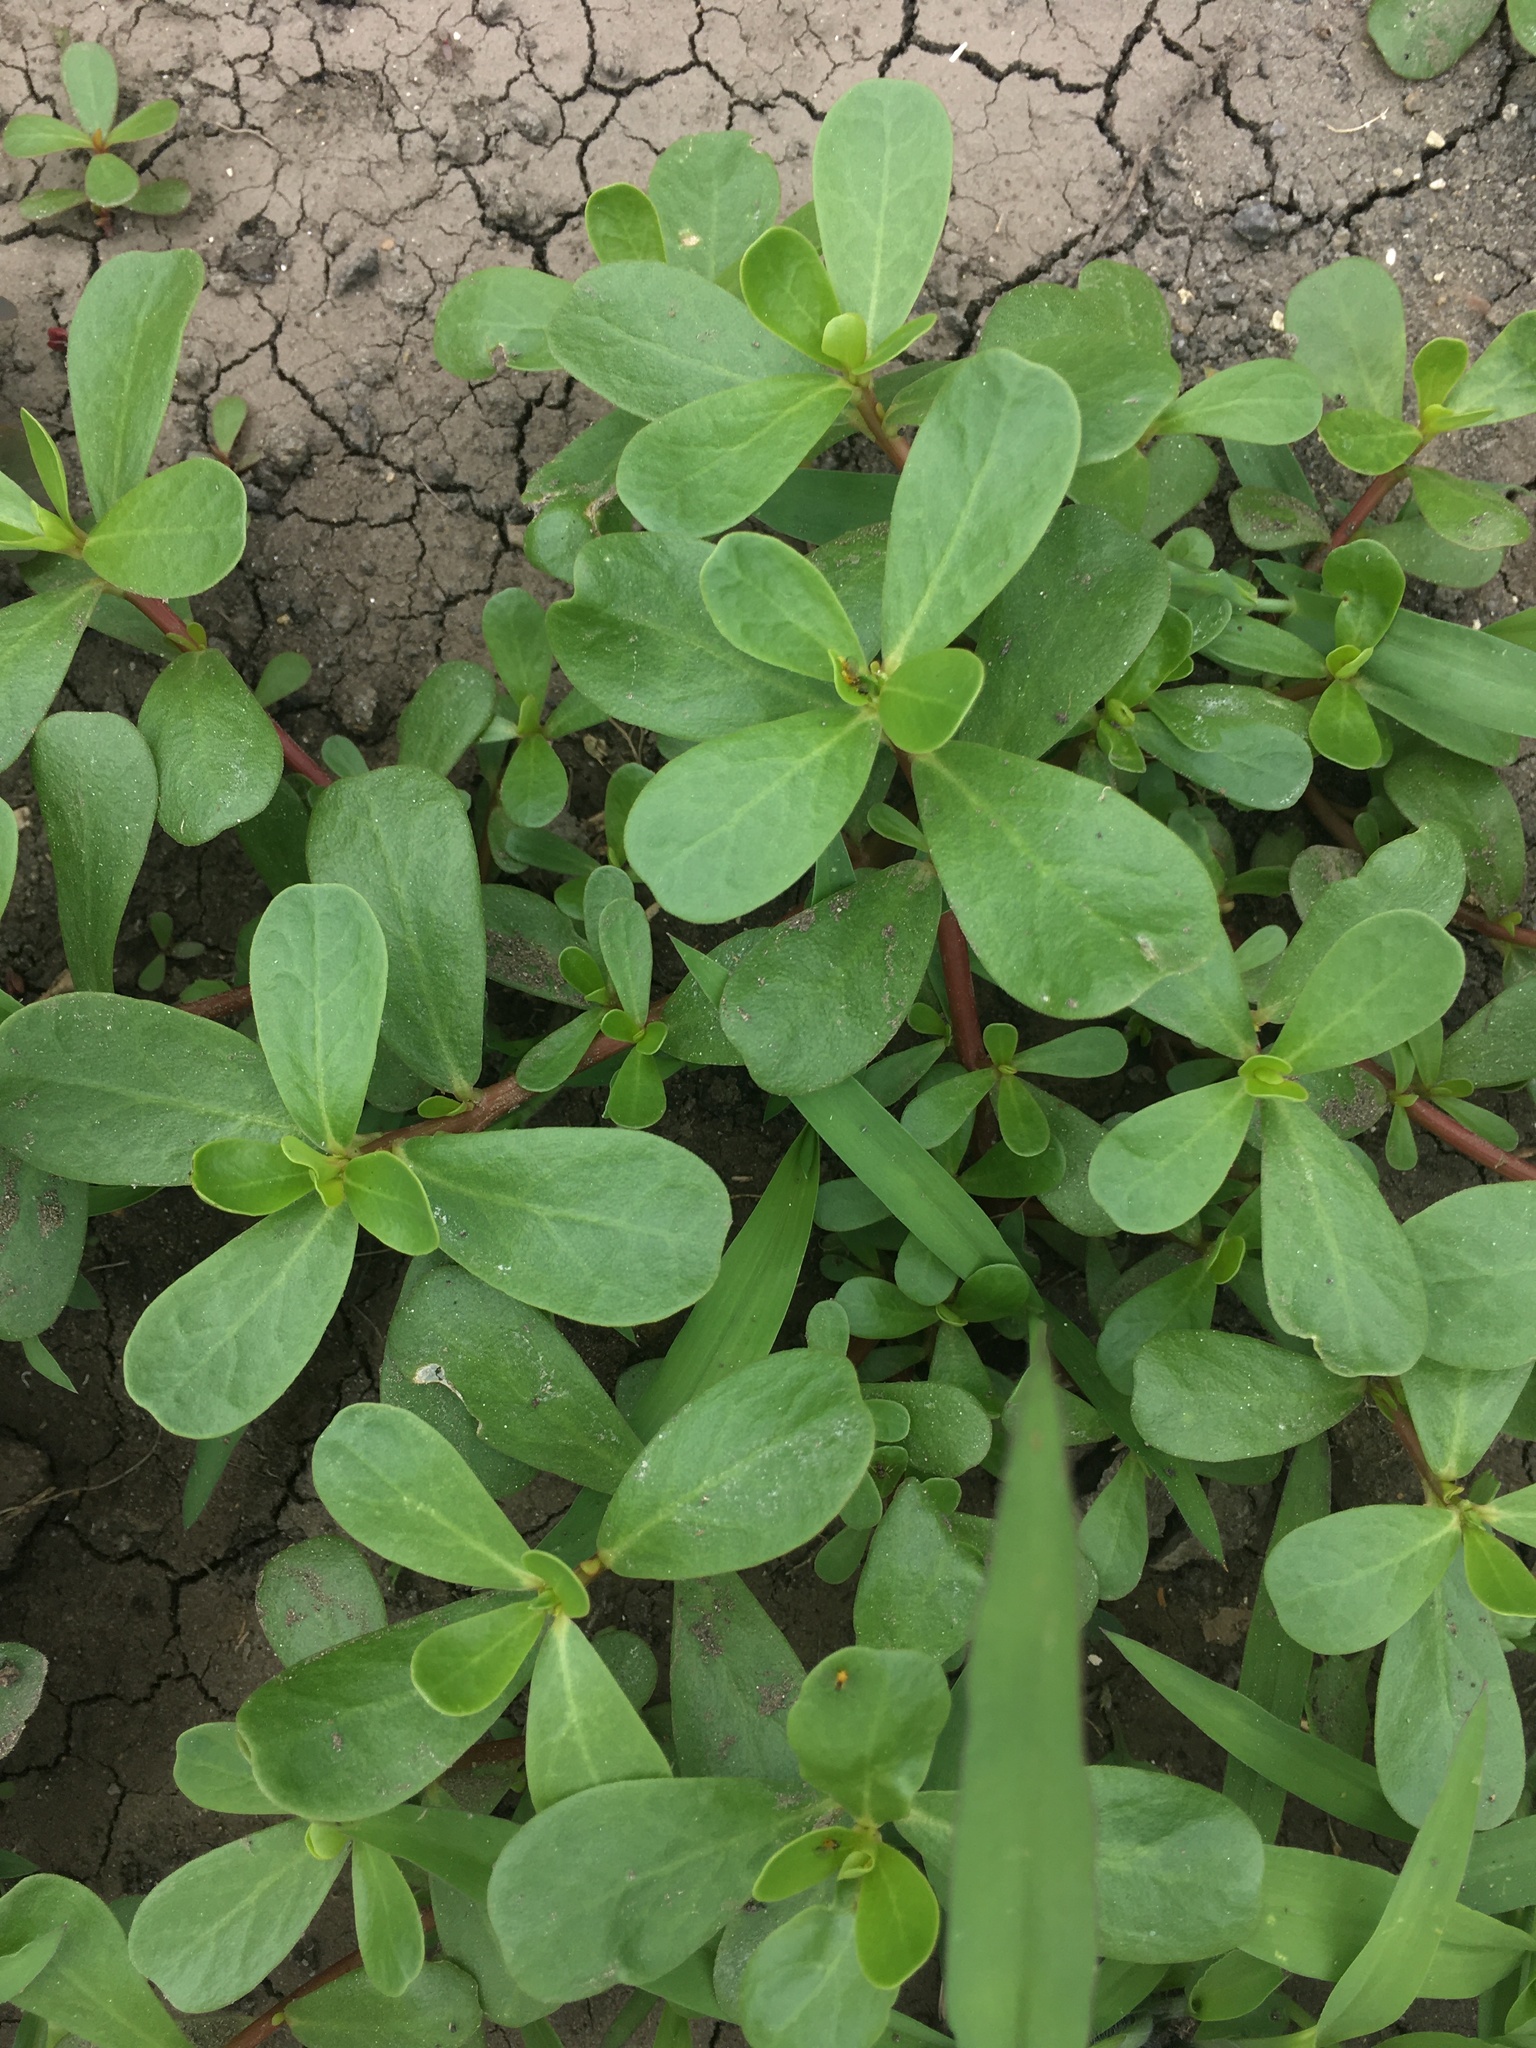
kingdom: Plantae
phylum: Tracheophyta
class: Magnoliopsida
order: Caryophyllales
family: Portulacaceae
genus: Portulaca
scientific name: Portulaca oleracea
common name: Common purslane
